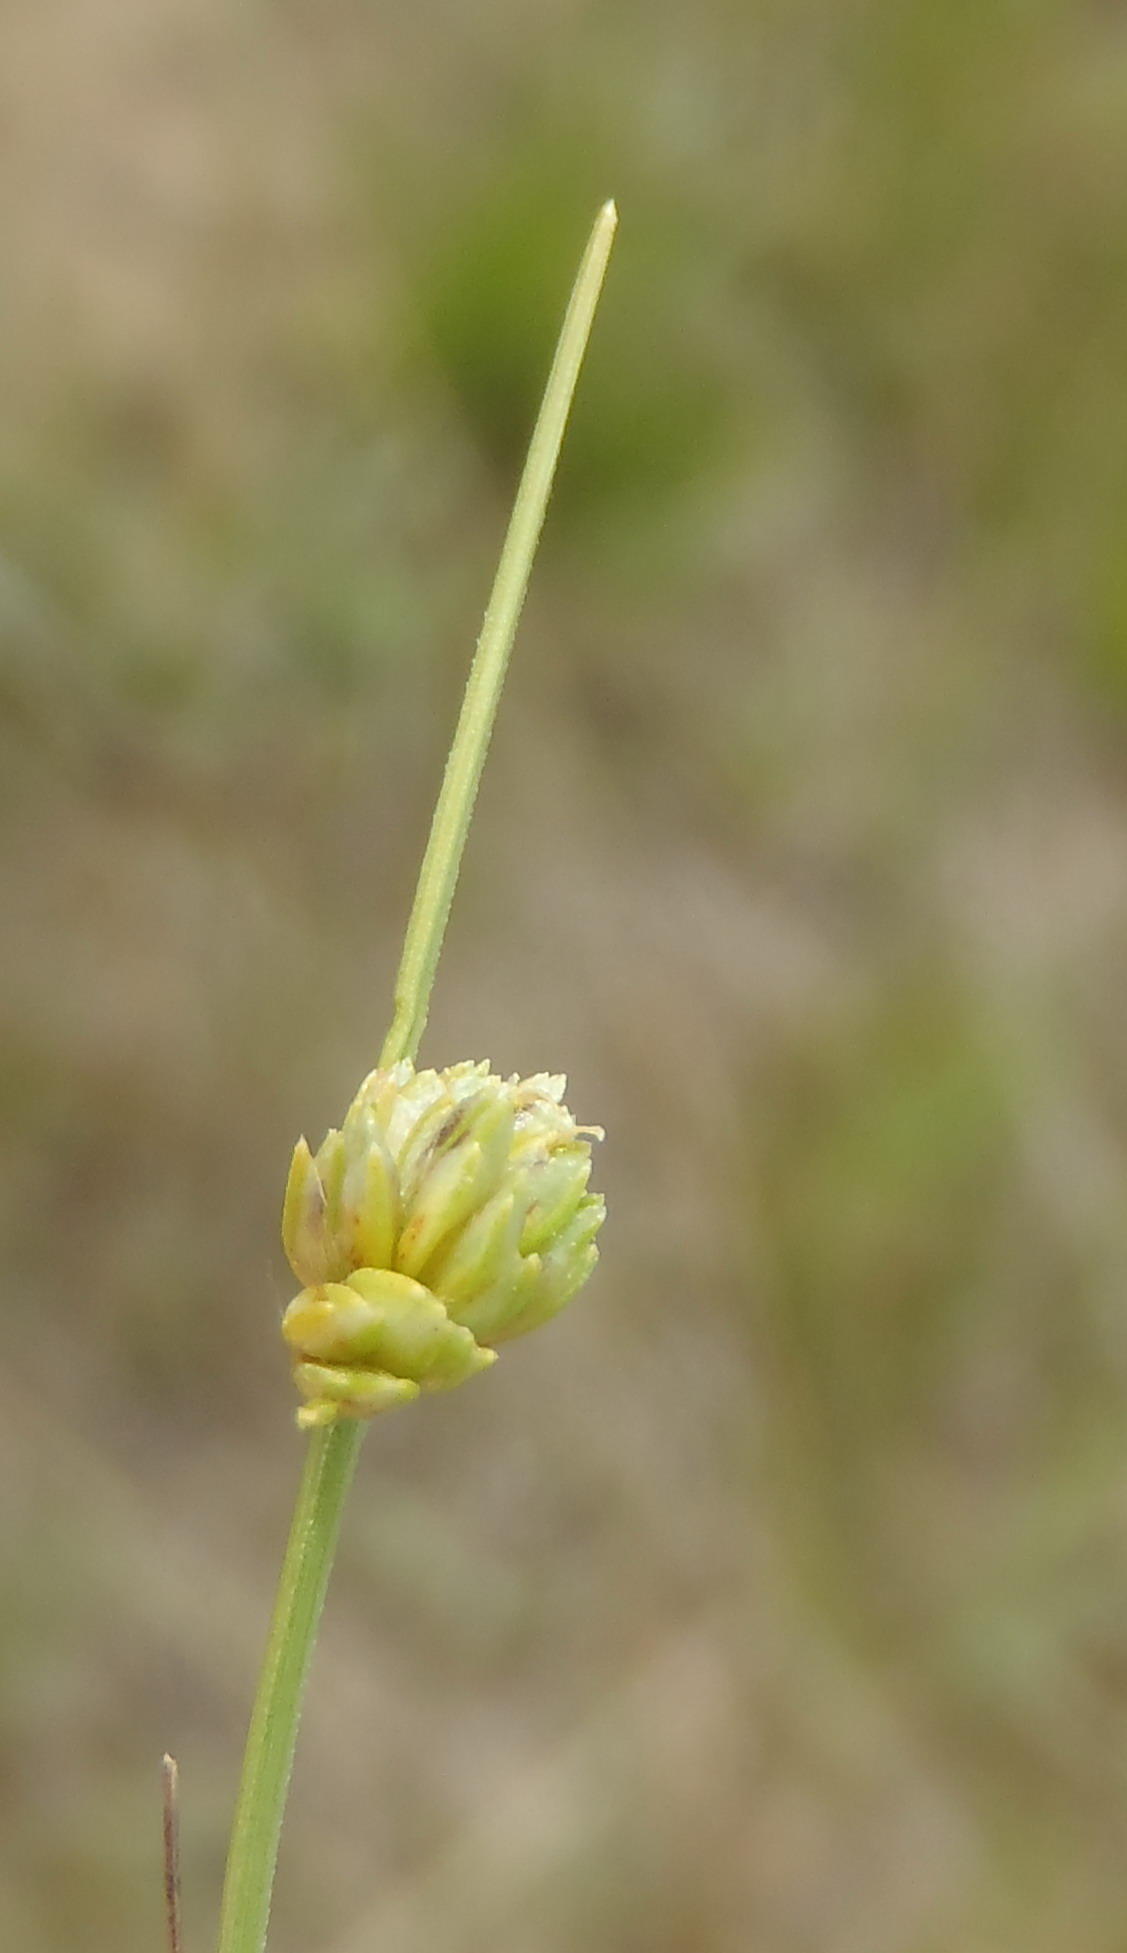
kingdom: Plantae
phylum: Tracheophyta
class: Liliopsida
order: Poales
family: Cyperaceae
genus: Ficinia
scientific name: Ficinia albicans
